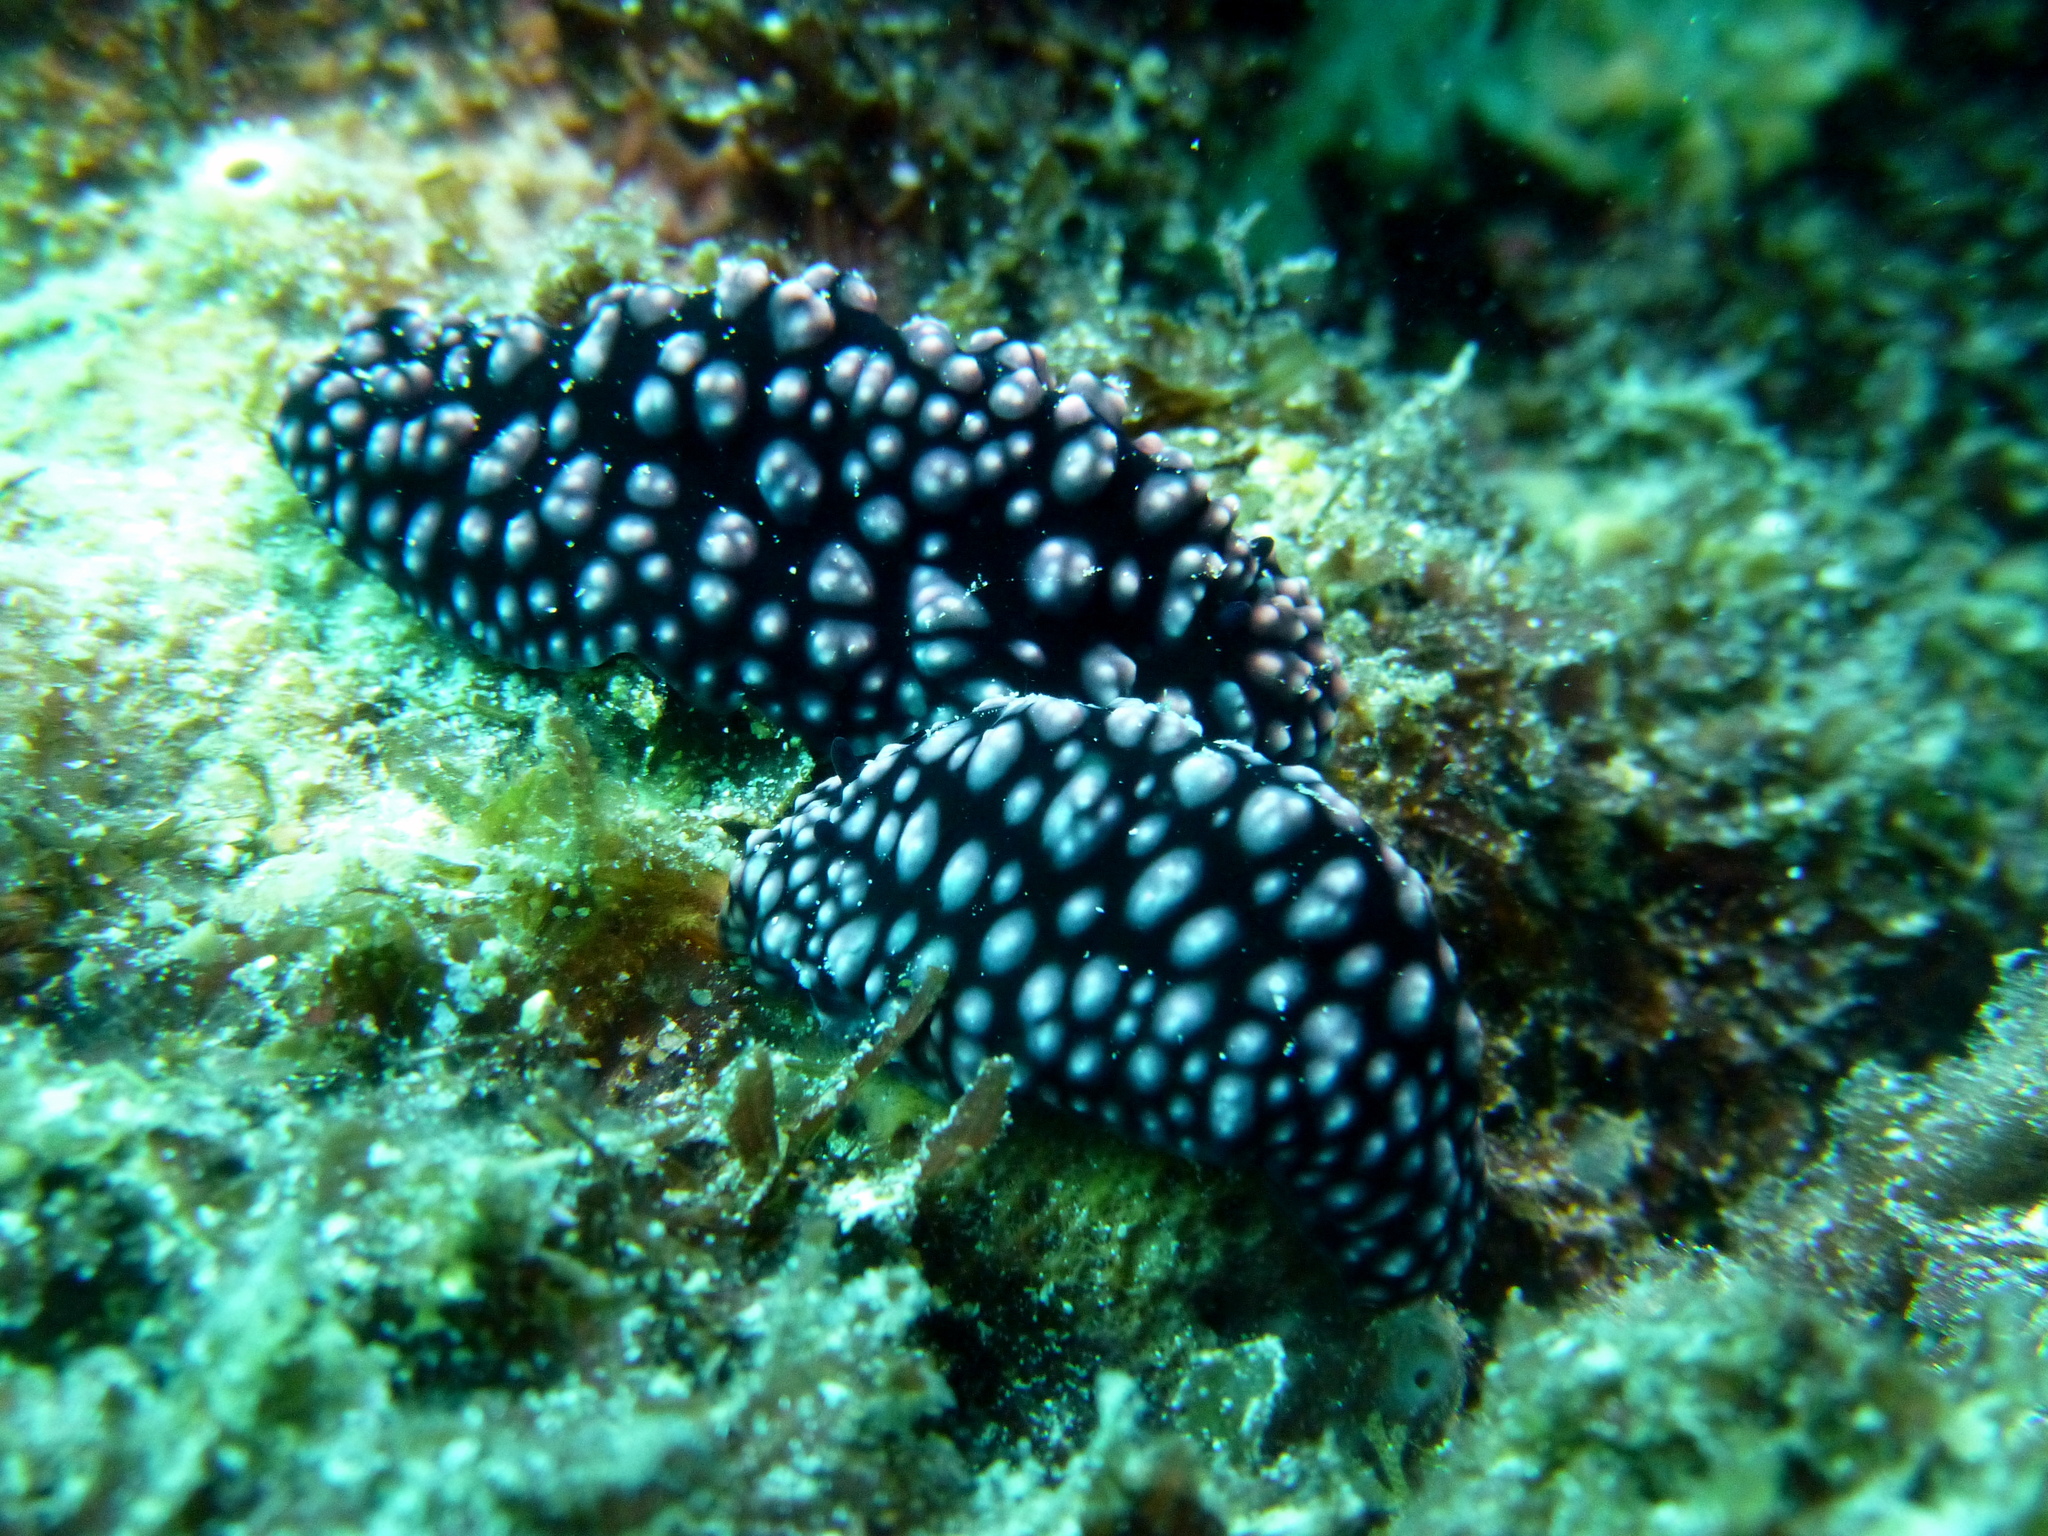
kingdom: Animalia
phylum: Mollusca
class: Gastropoda
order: Nudibranchia
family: Phyllidiidae
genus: Phyllidiella
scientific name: Phyllidiella nigra
